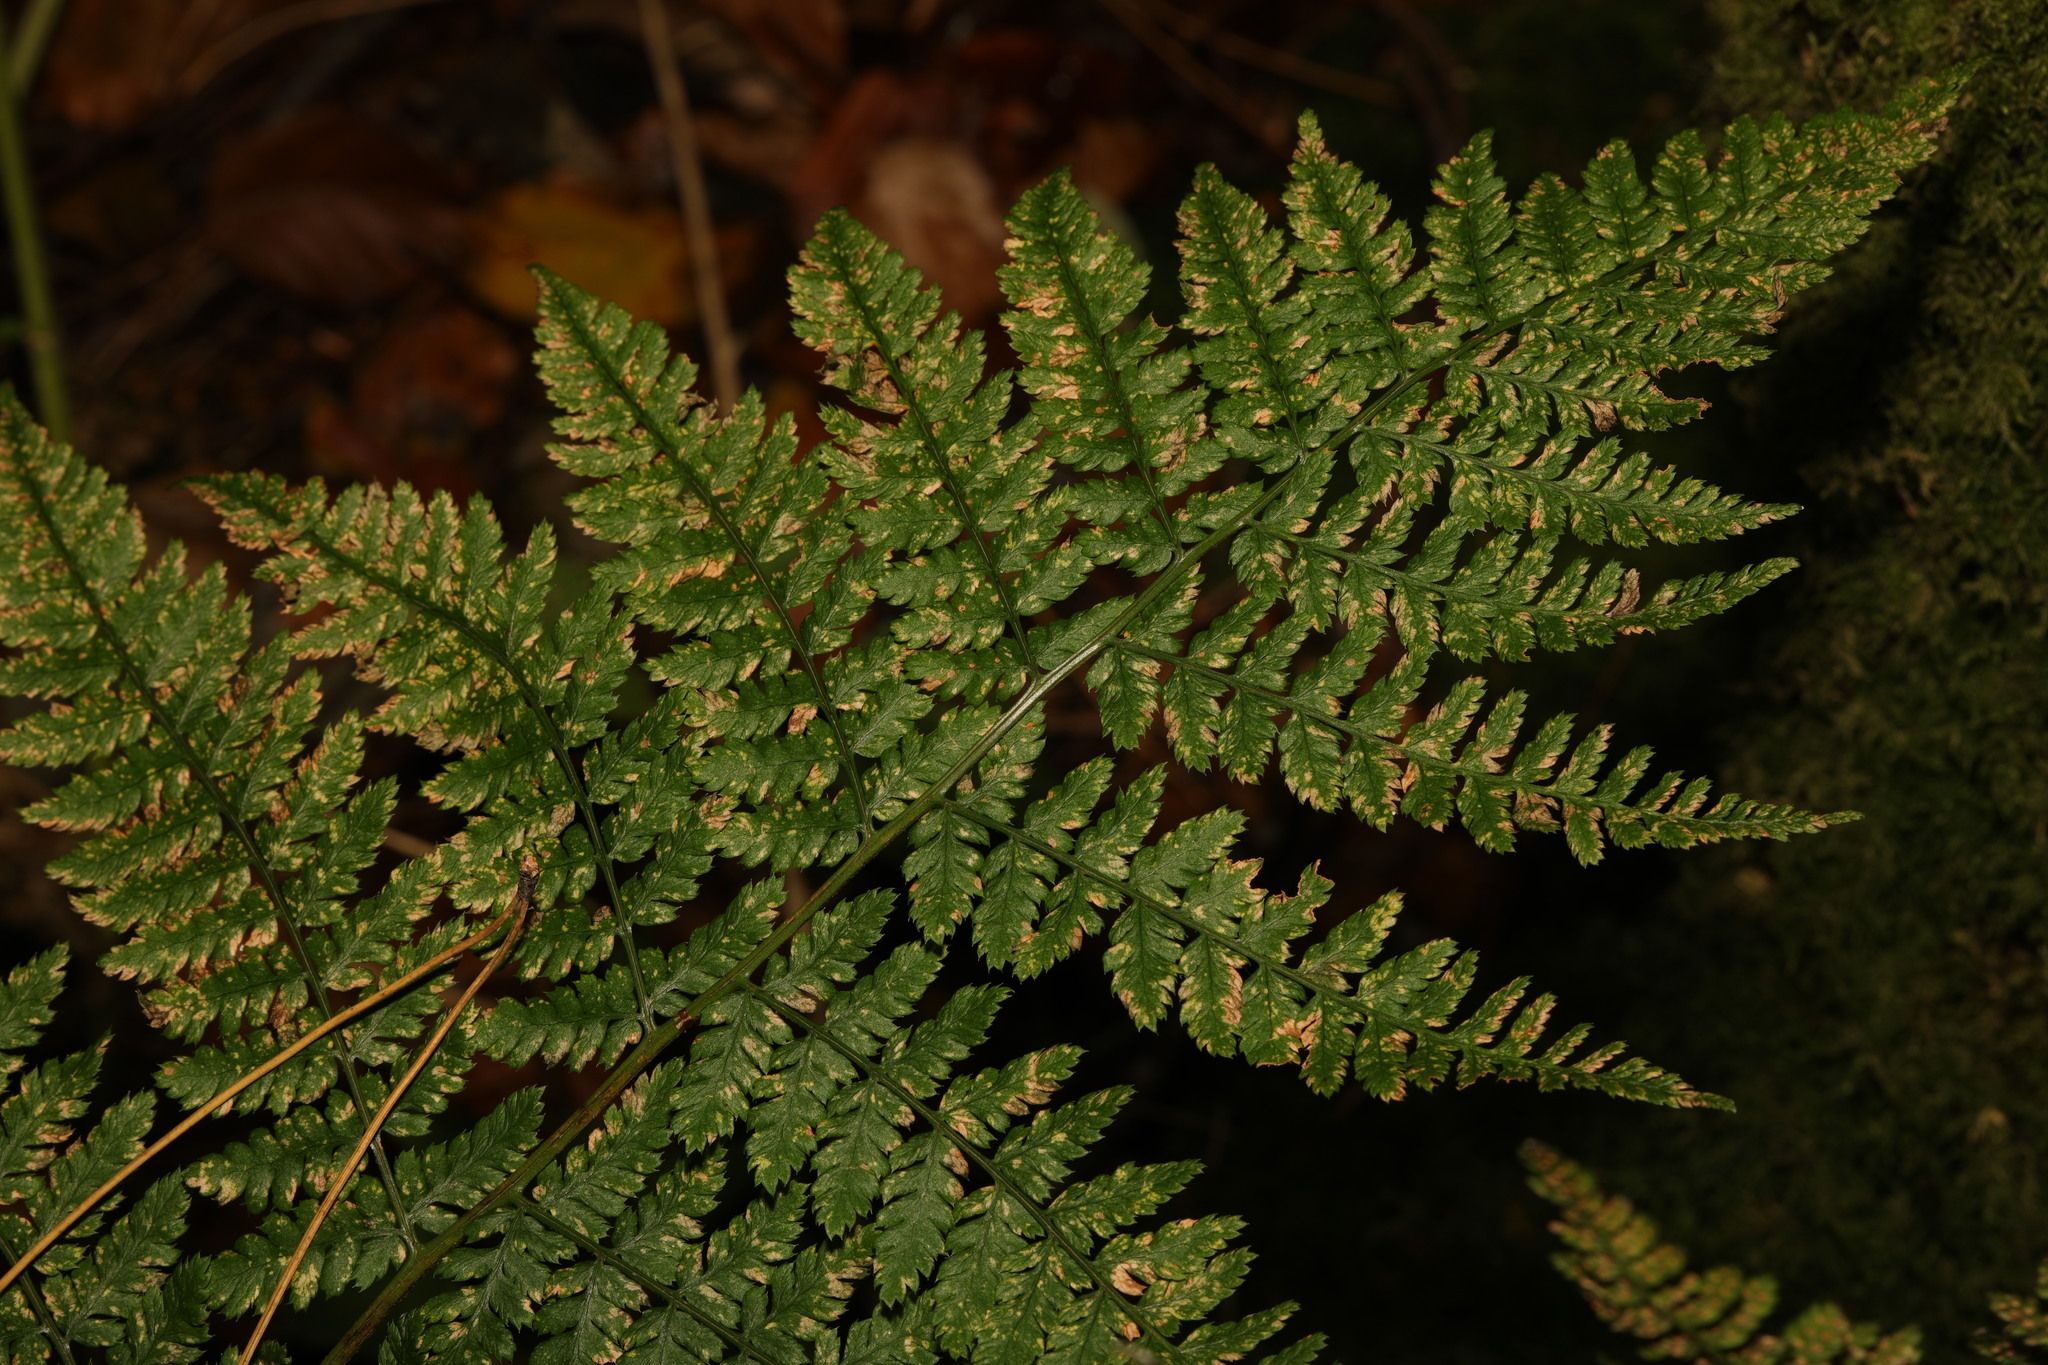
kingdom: Plantae
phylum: Tracheophyta
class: Polypodiopsida
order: Polypodiales
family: Dryopteridaceae
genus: Dryopteris
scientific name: Dryopteris dilatata
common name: Broad buckler-fern
